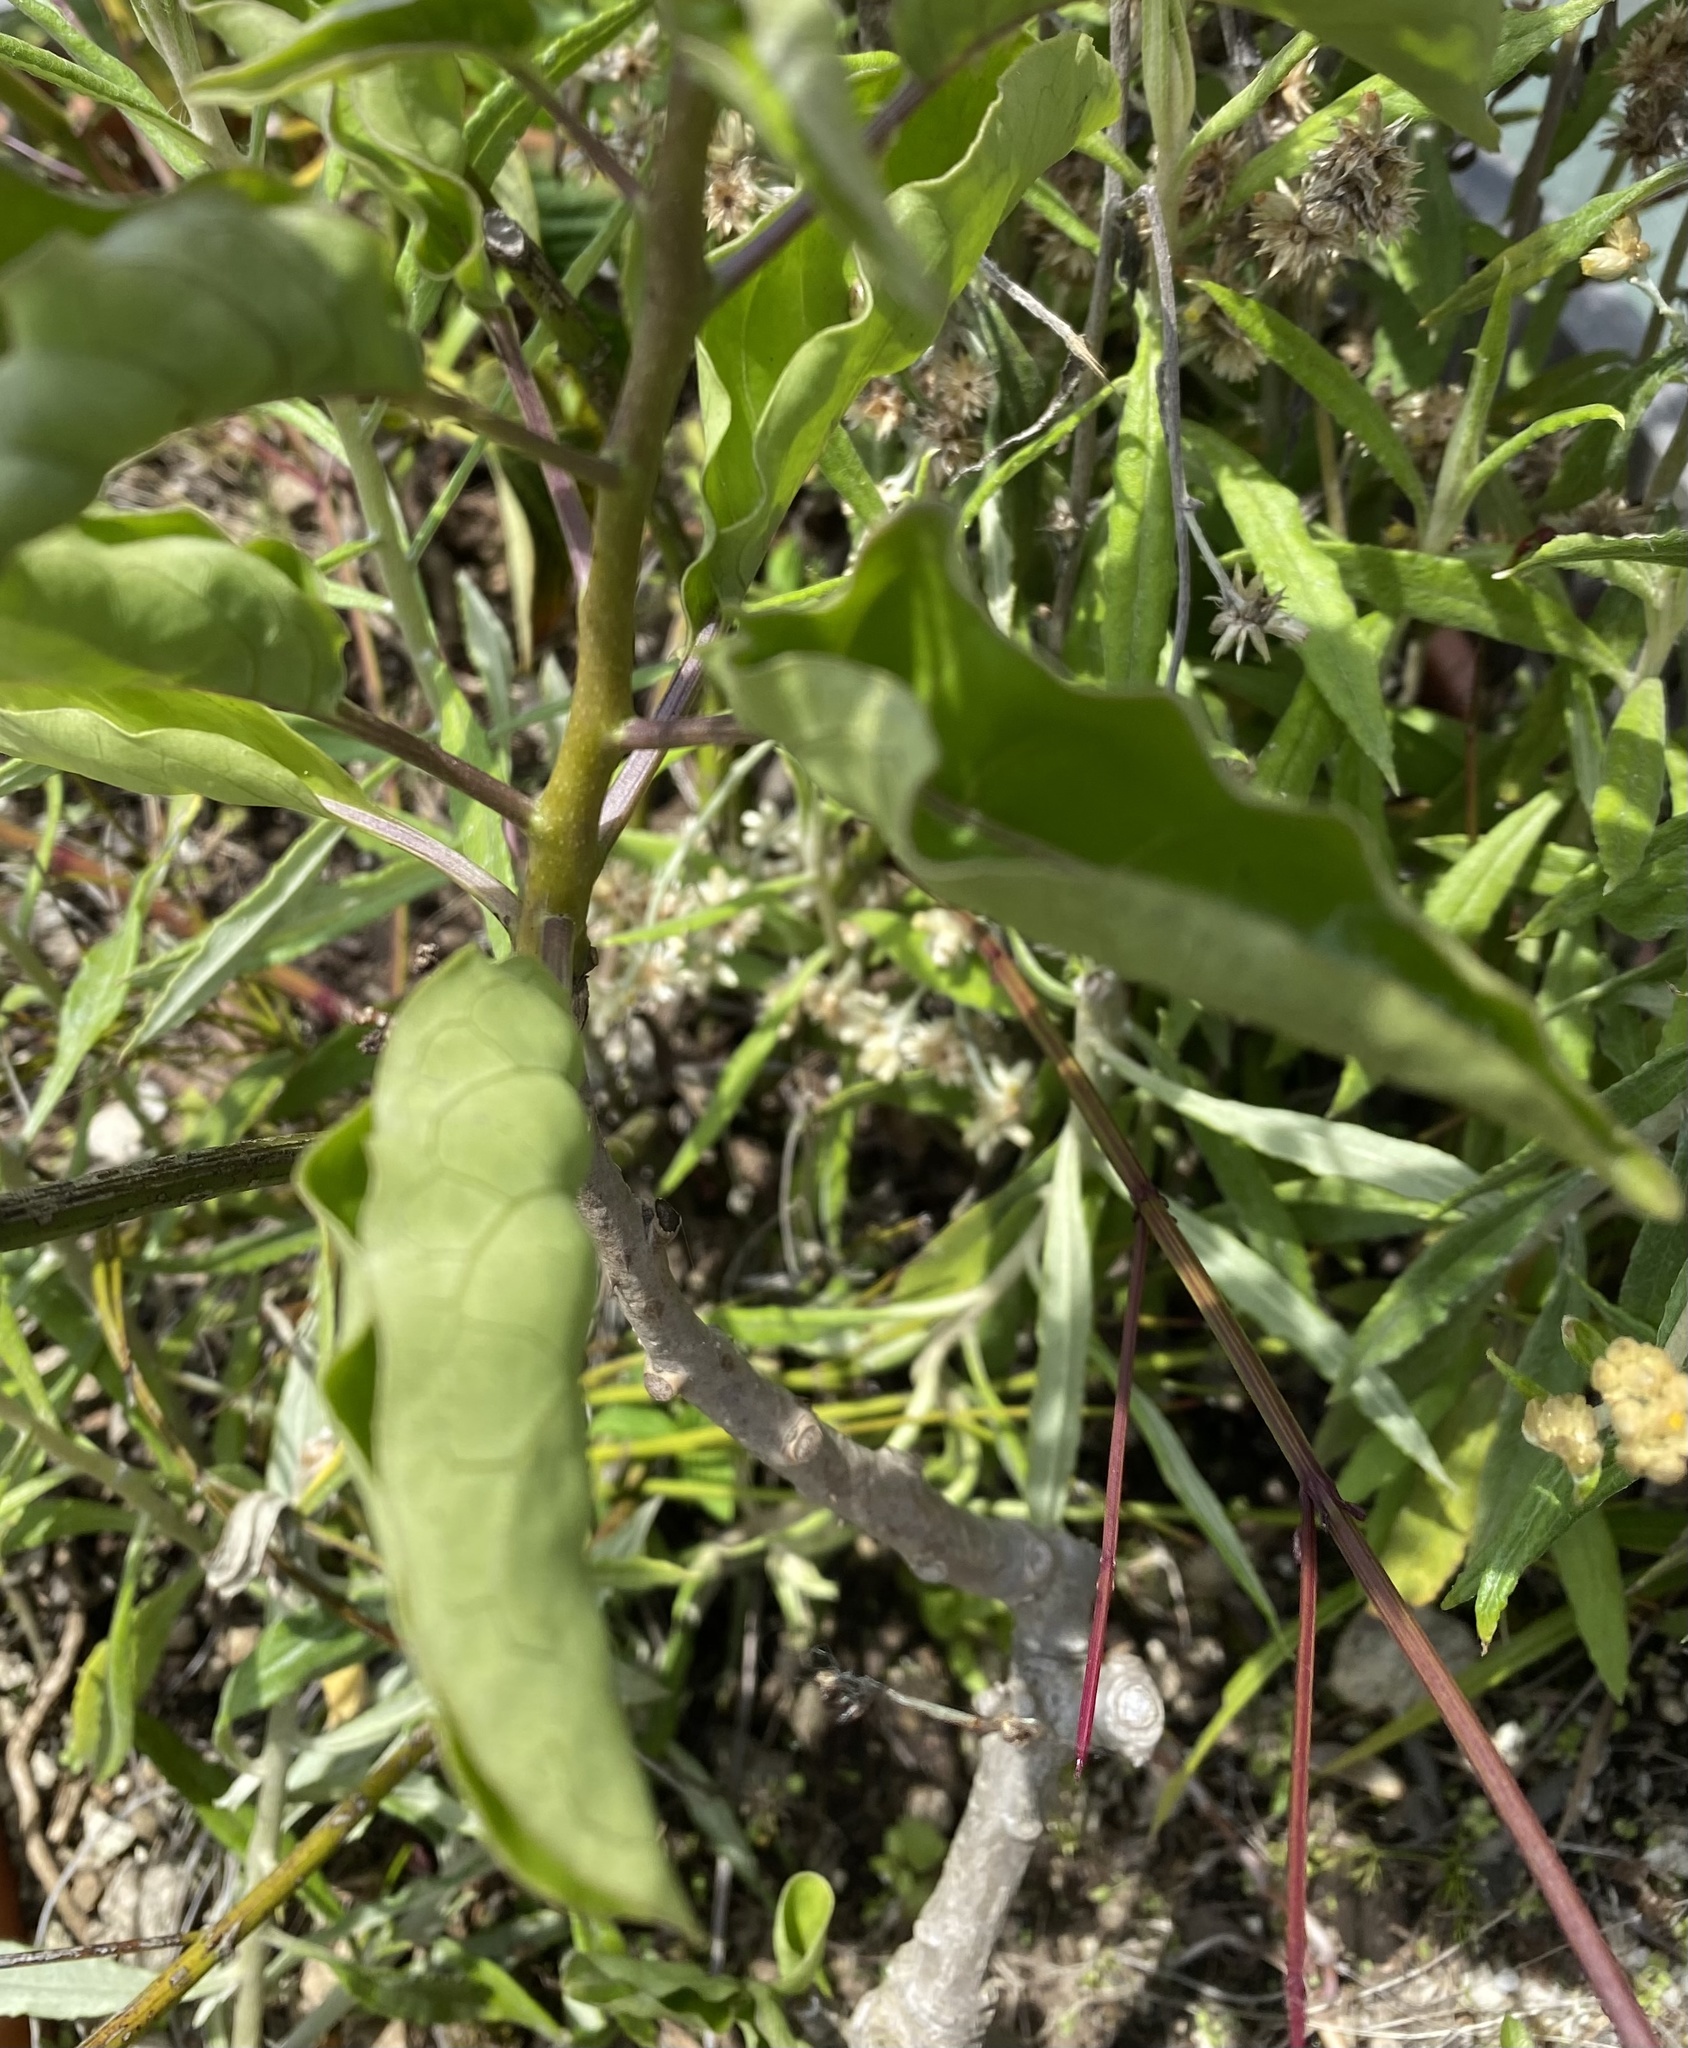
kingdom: Plantae
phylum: Tracheophyta
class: Magnoliopsida
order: Solanales
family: Solanaceae
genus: Solanum
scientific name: Solanum wendlandii
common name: Costa rican nightshade
